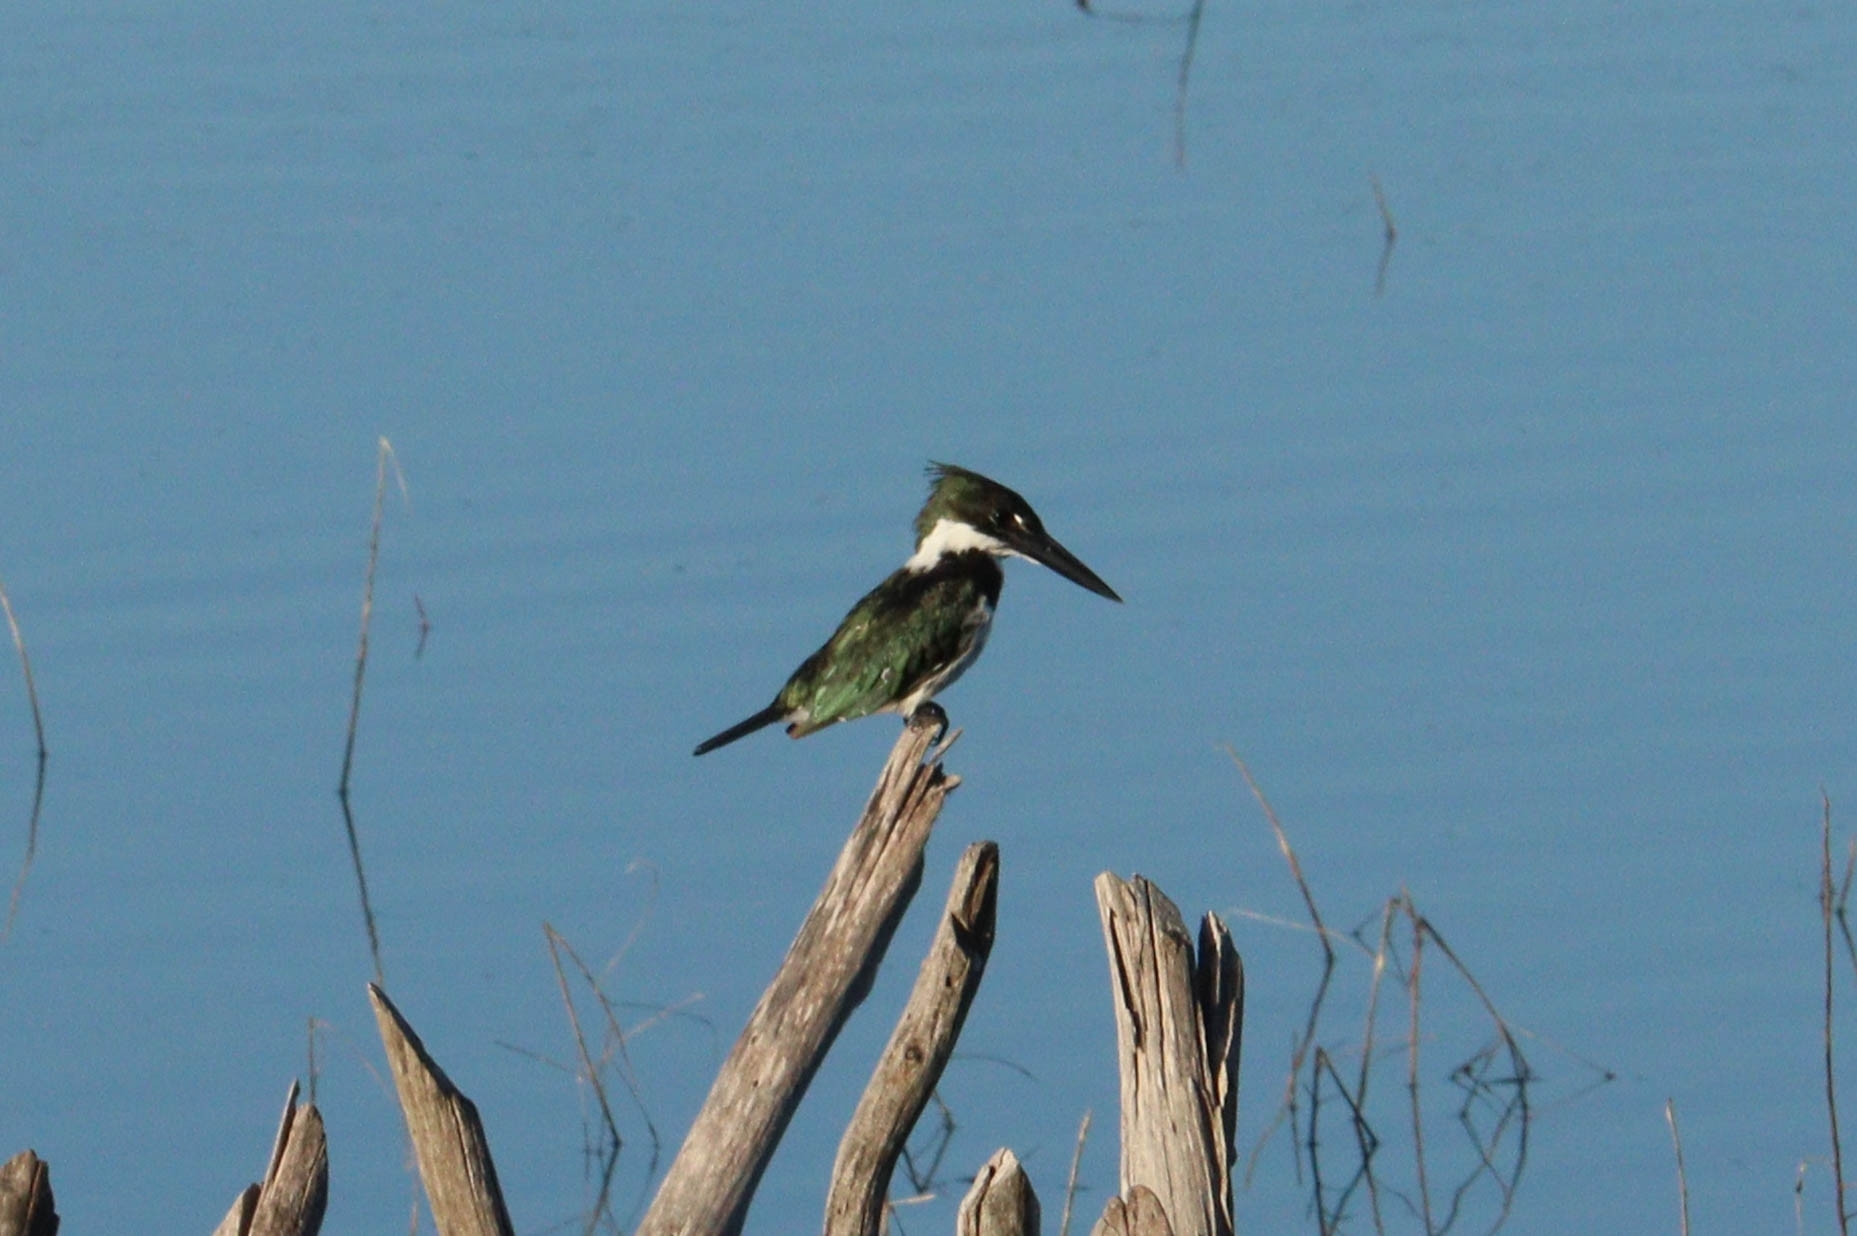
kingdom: Animalia
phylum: Chordata
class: Aves
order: Coraciiformes
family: Alcedinidae
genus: Chloroceryle
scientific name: Chloroceryle amazona
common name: Amazon kingfisher
